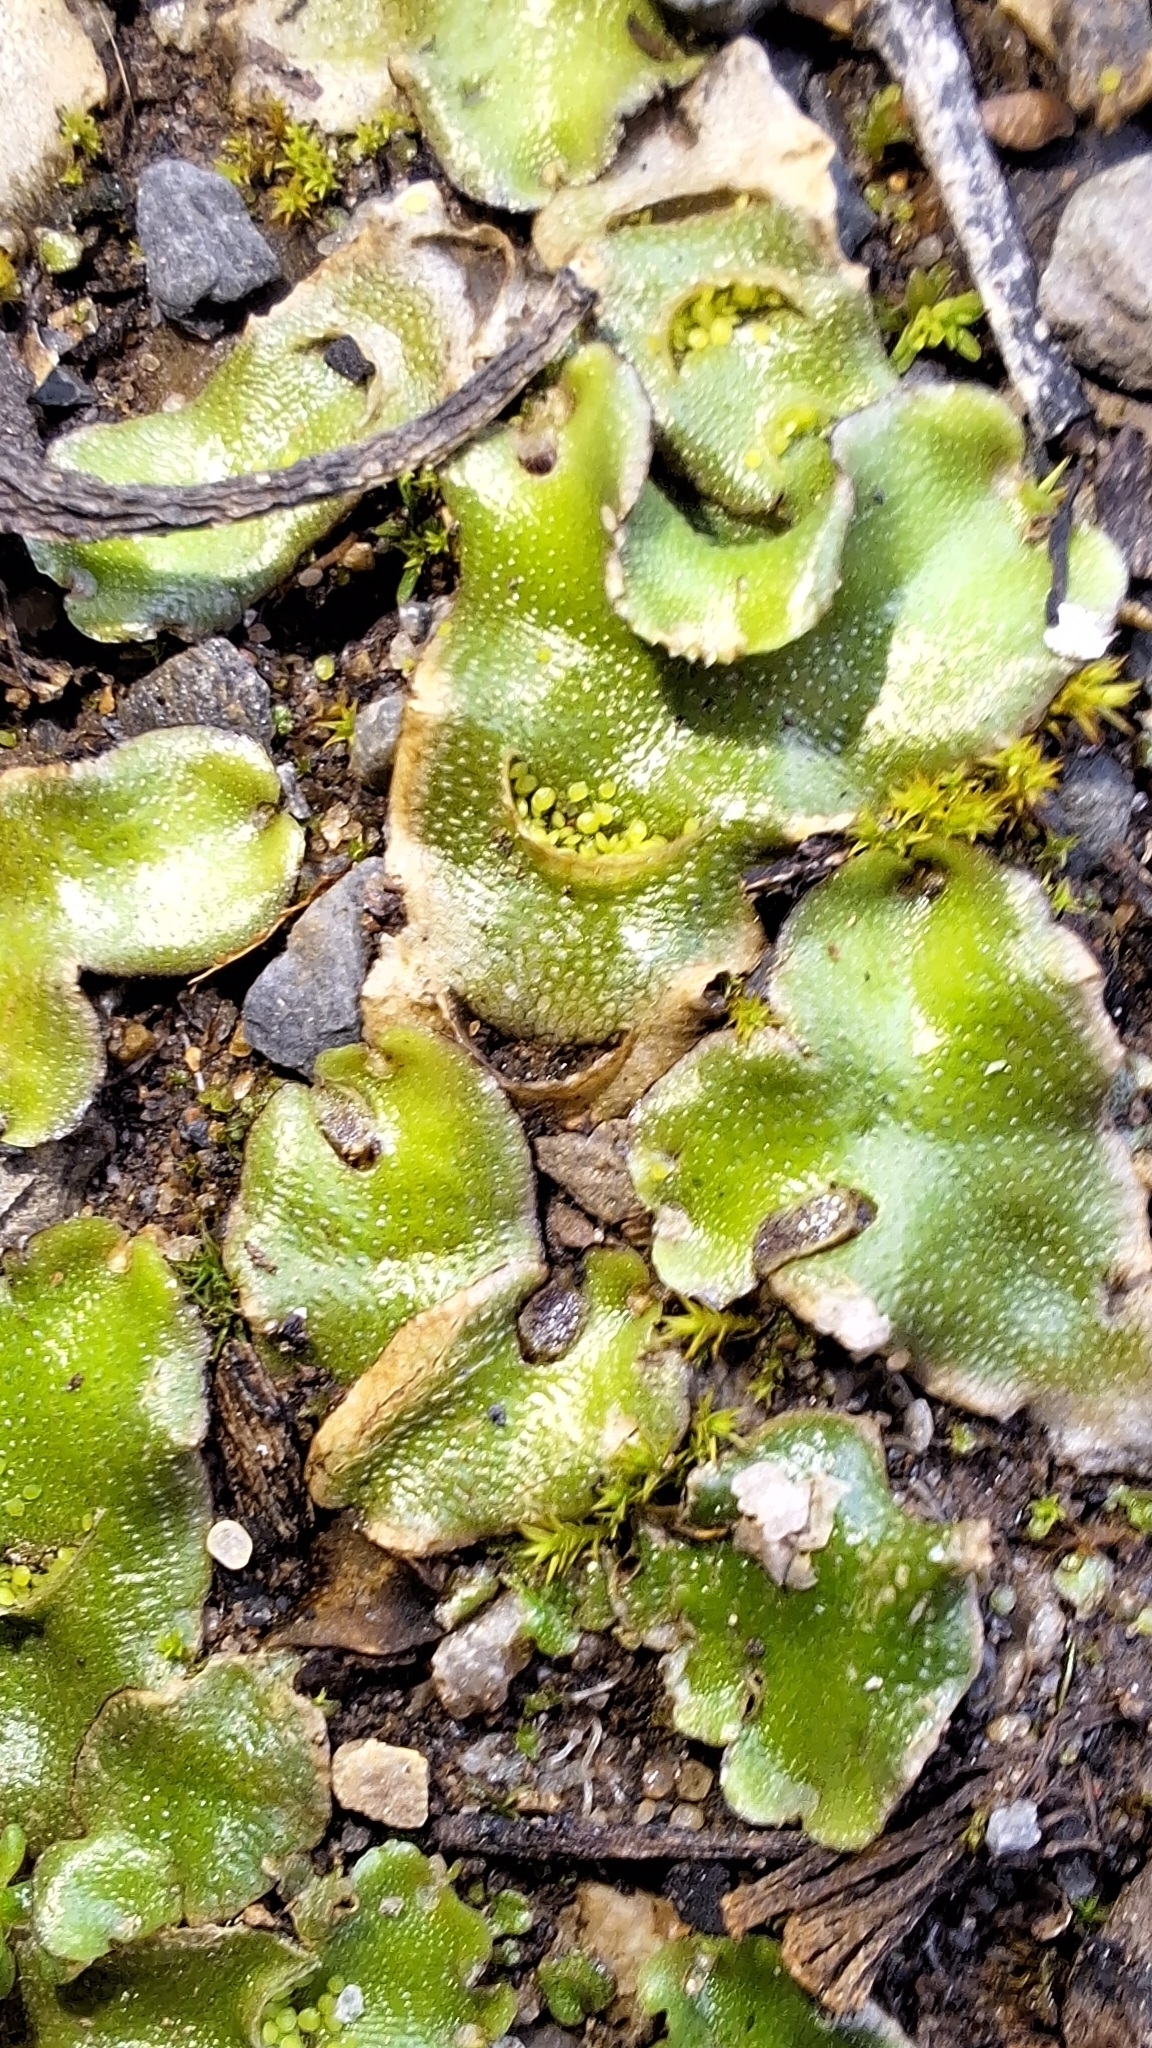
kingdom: Plantae
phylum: Marchantiophyta
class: Marchantiopsida
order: Lunulariales
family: Lunulariaceae
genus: Lunularia
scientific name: Lunularia cruciata
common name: Crescent-cup liverwort
